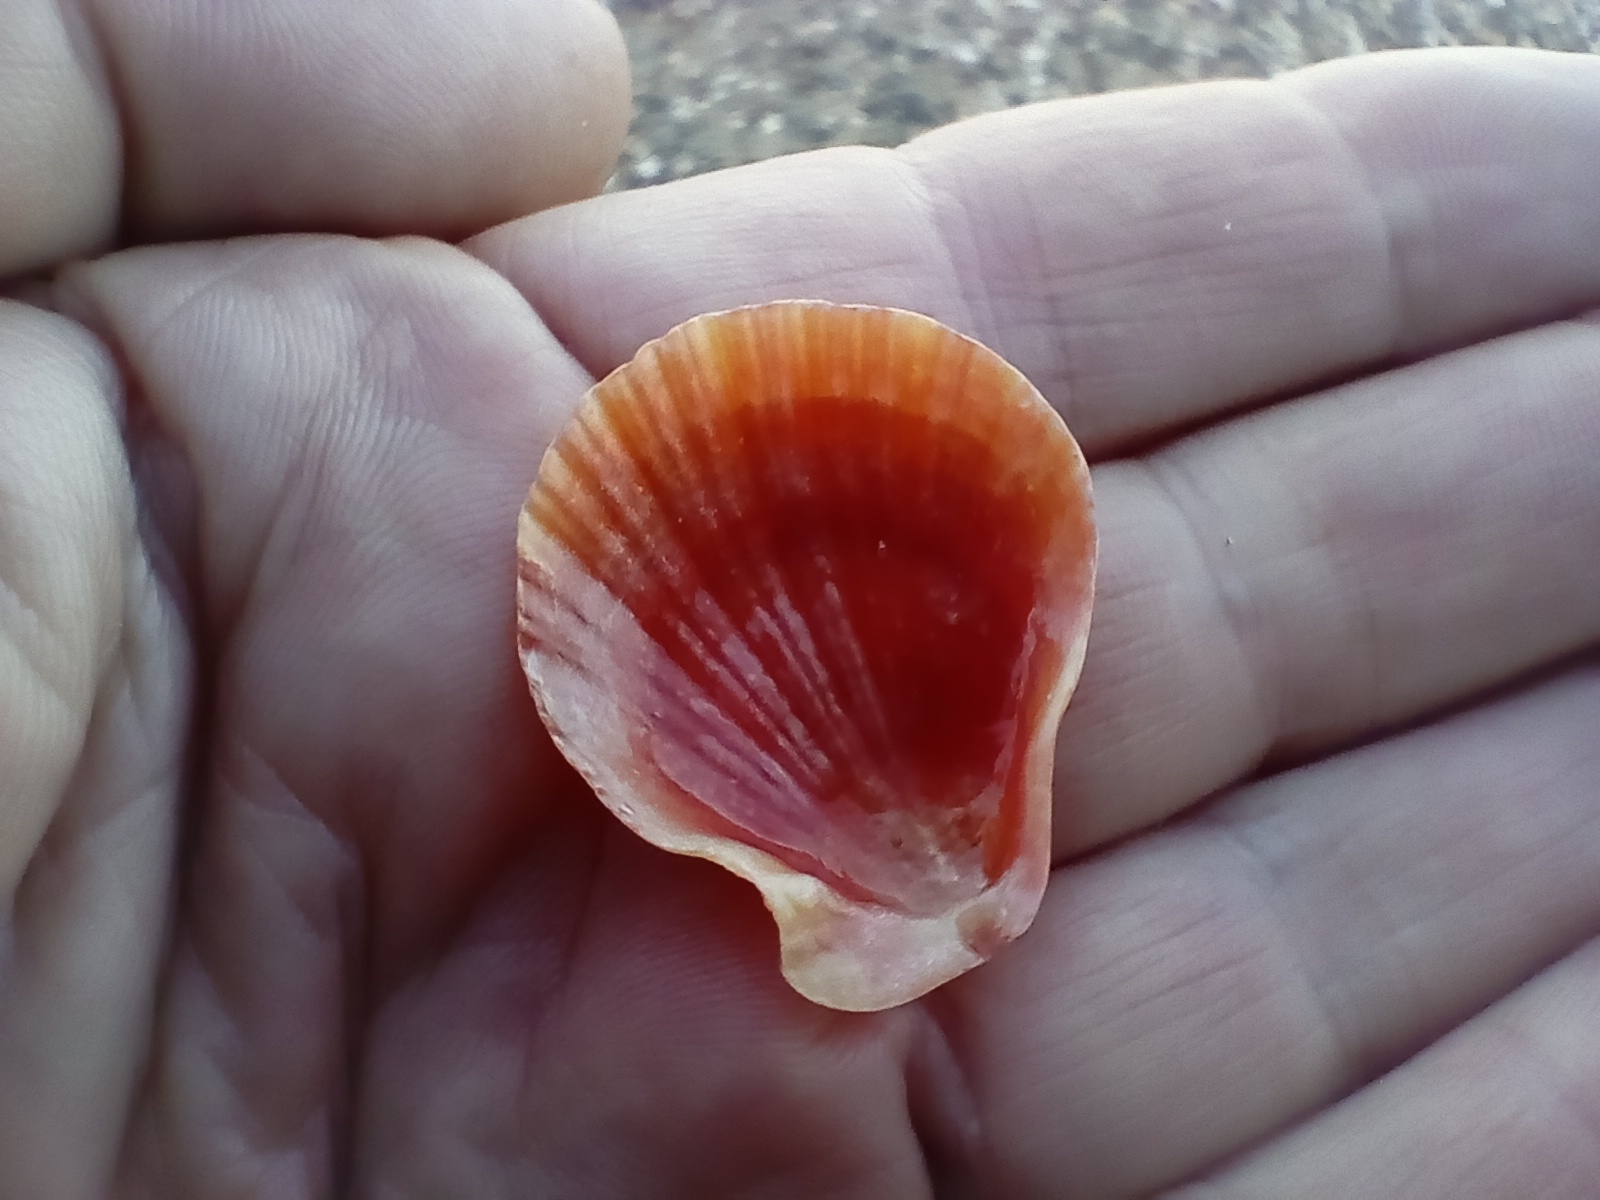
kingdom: Animalia
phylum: Mollusca
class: Bivalvia
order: Pectinida
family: Pectinidae
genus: Talochlamys
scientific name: Talochlamys zelandiae
